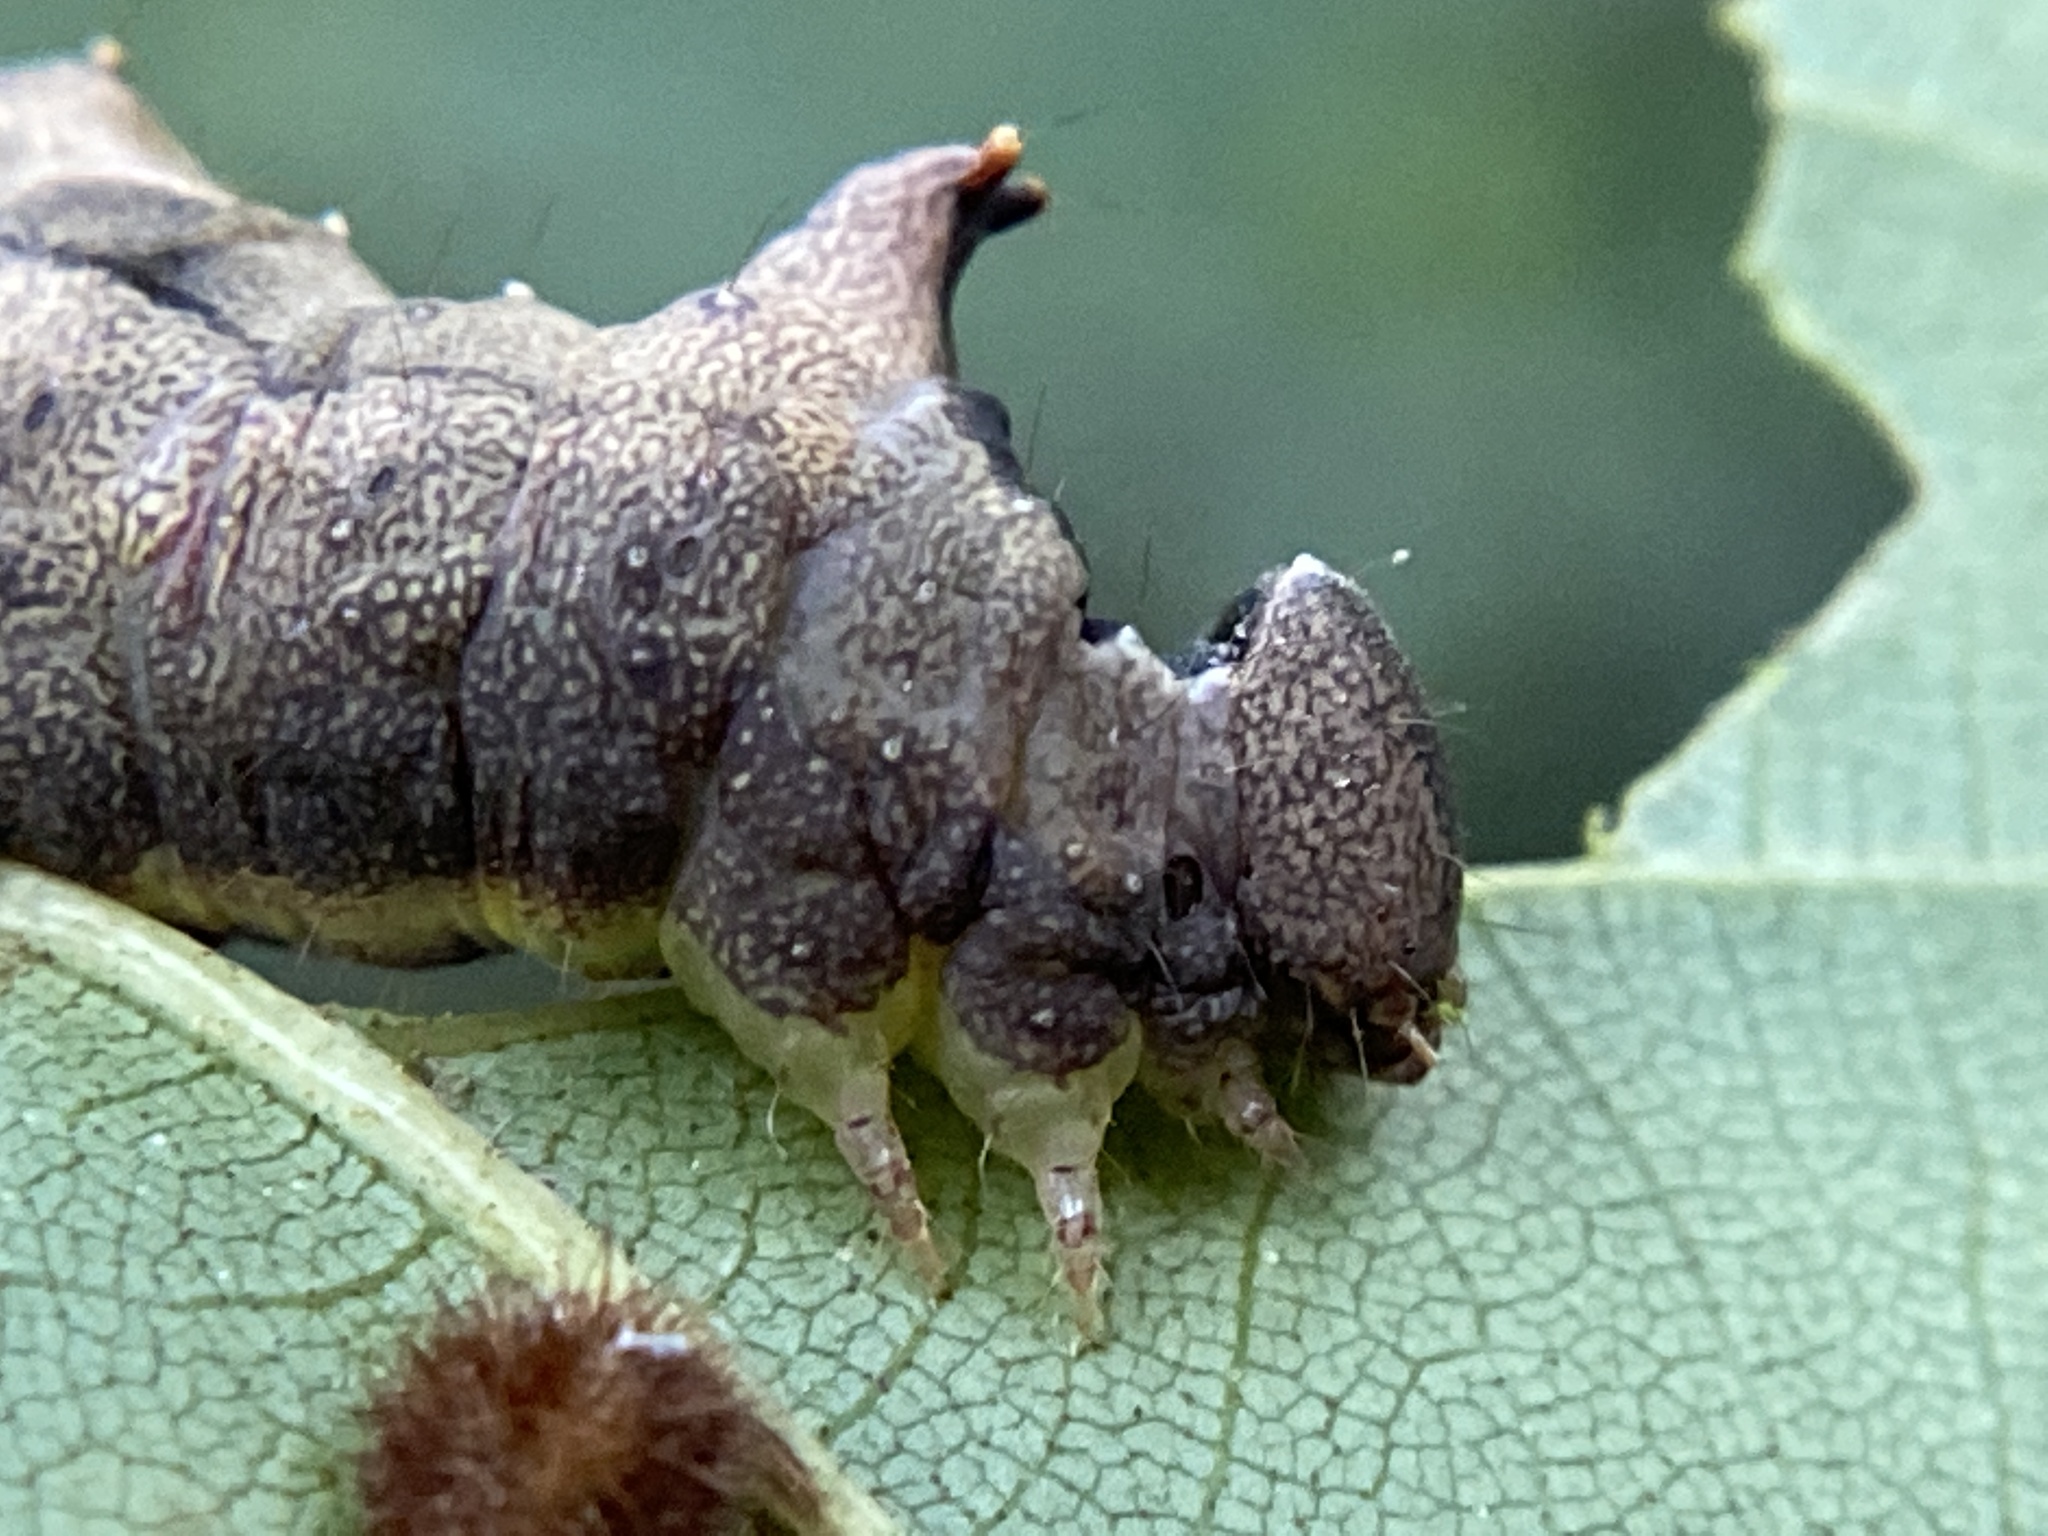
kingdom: Animalia
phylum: Arthropoda
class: Insecta
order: Lepidoptera
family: Notodontidae
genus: Schizura
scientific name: Schizura
